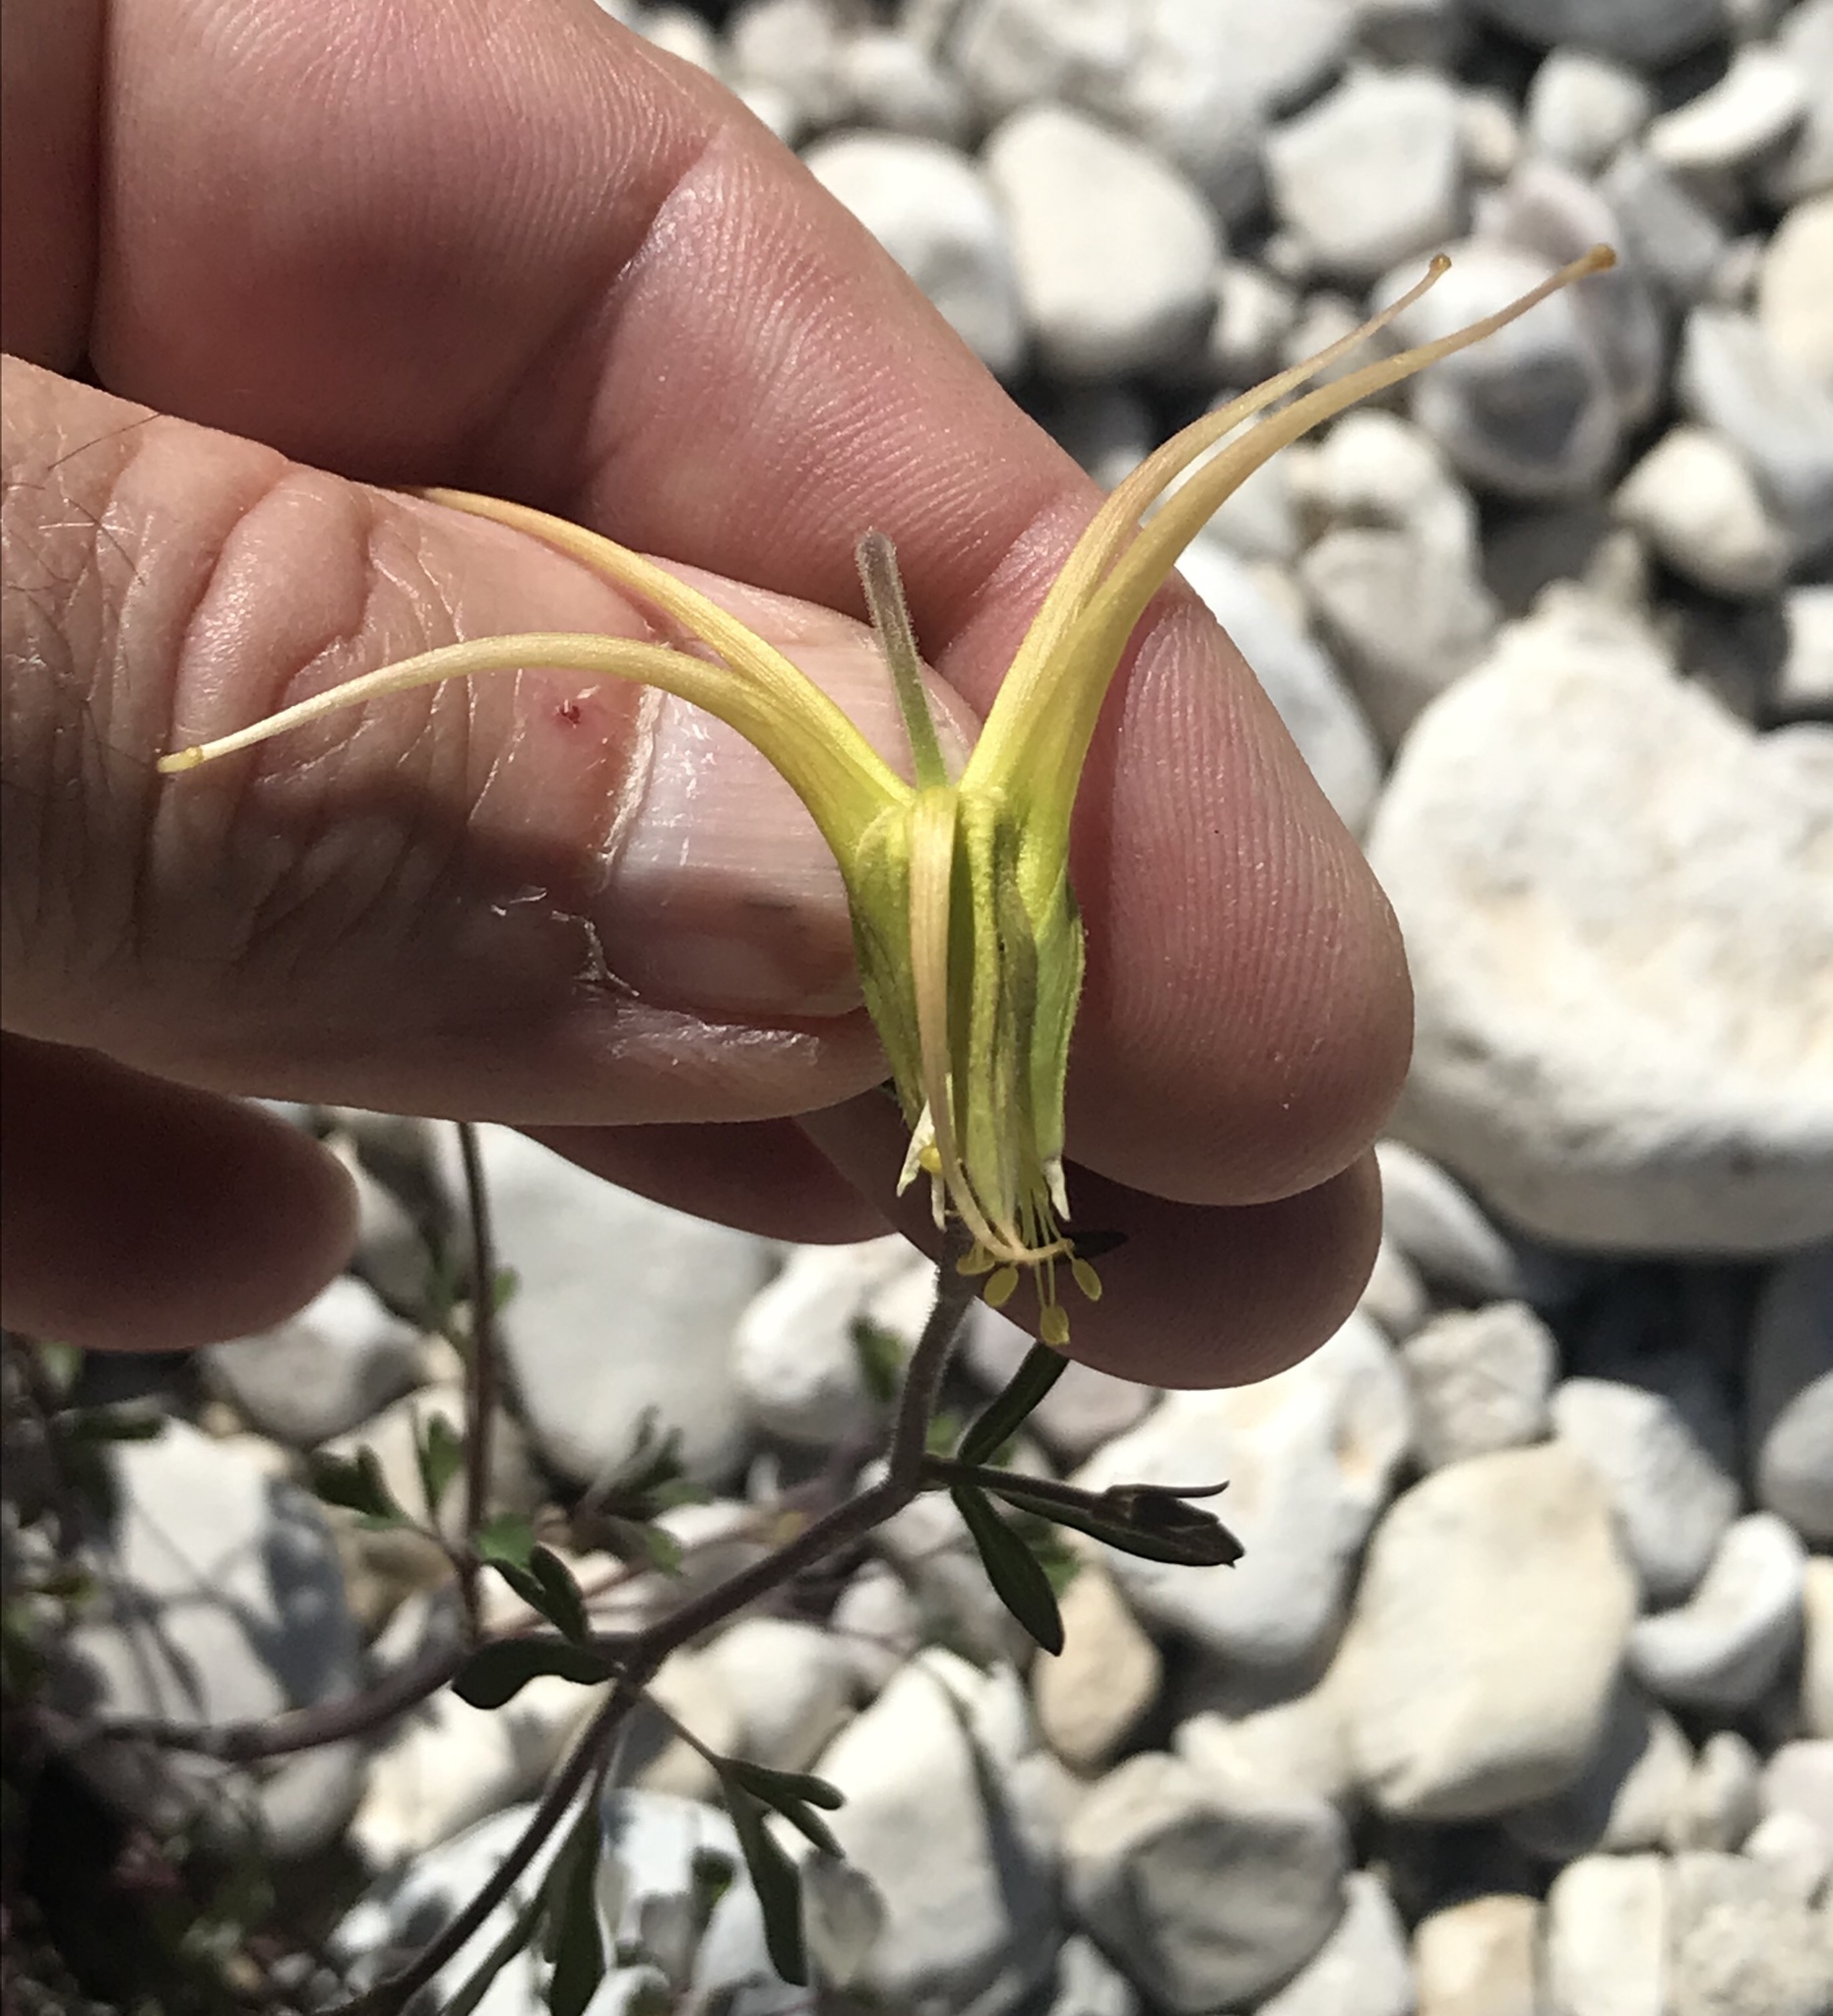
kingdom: Plantae
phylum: Tracheophyta
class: Magnoliopsida
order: Ranunculales
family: Ranunculaceae
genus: Aquilegia
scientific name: Aquilegia chrysantha
